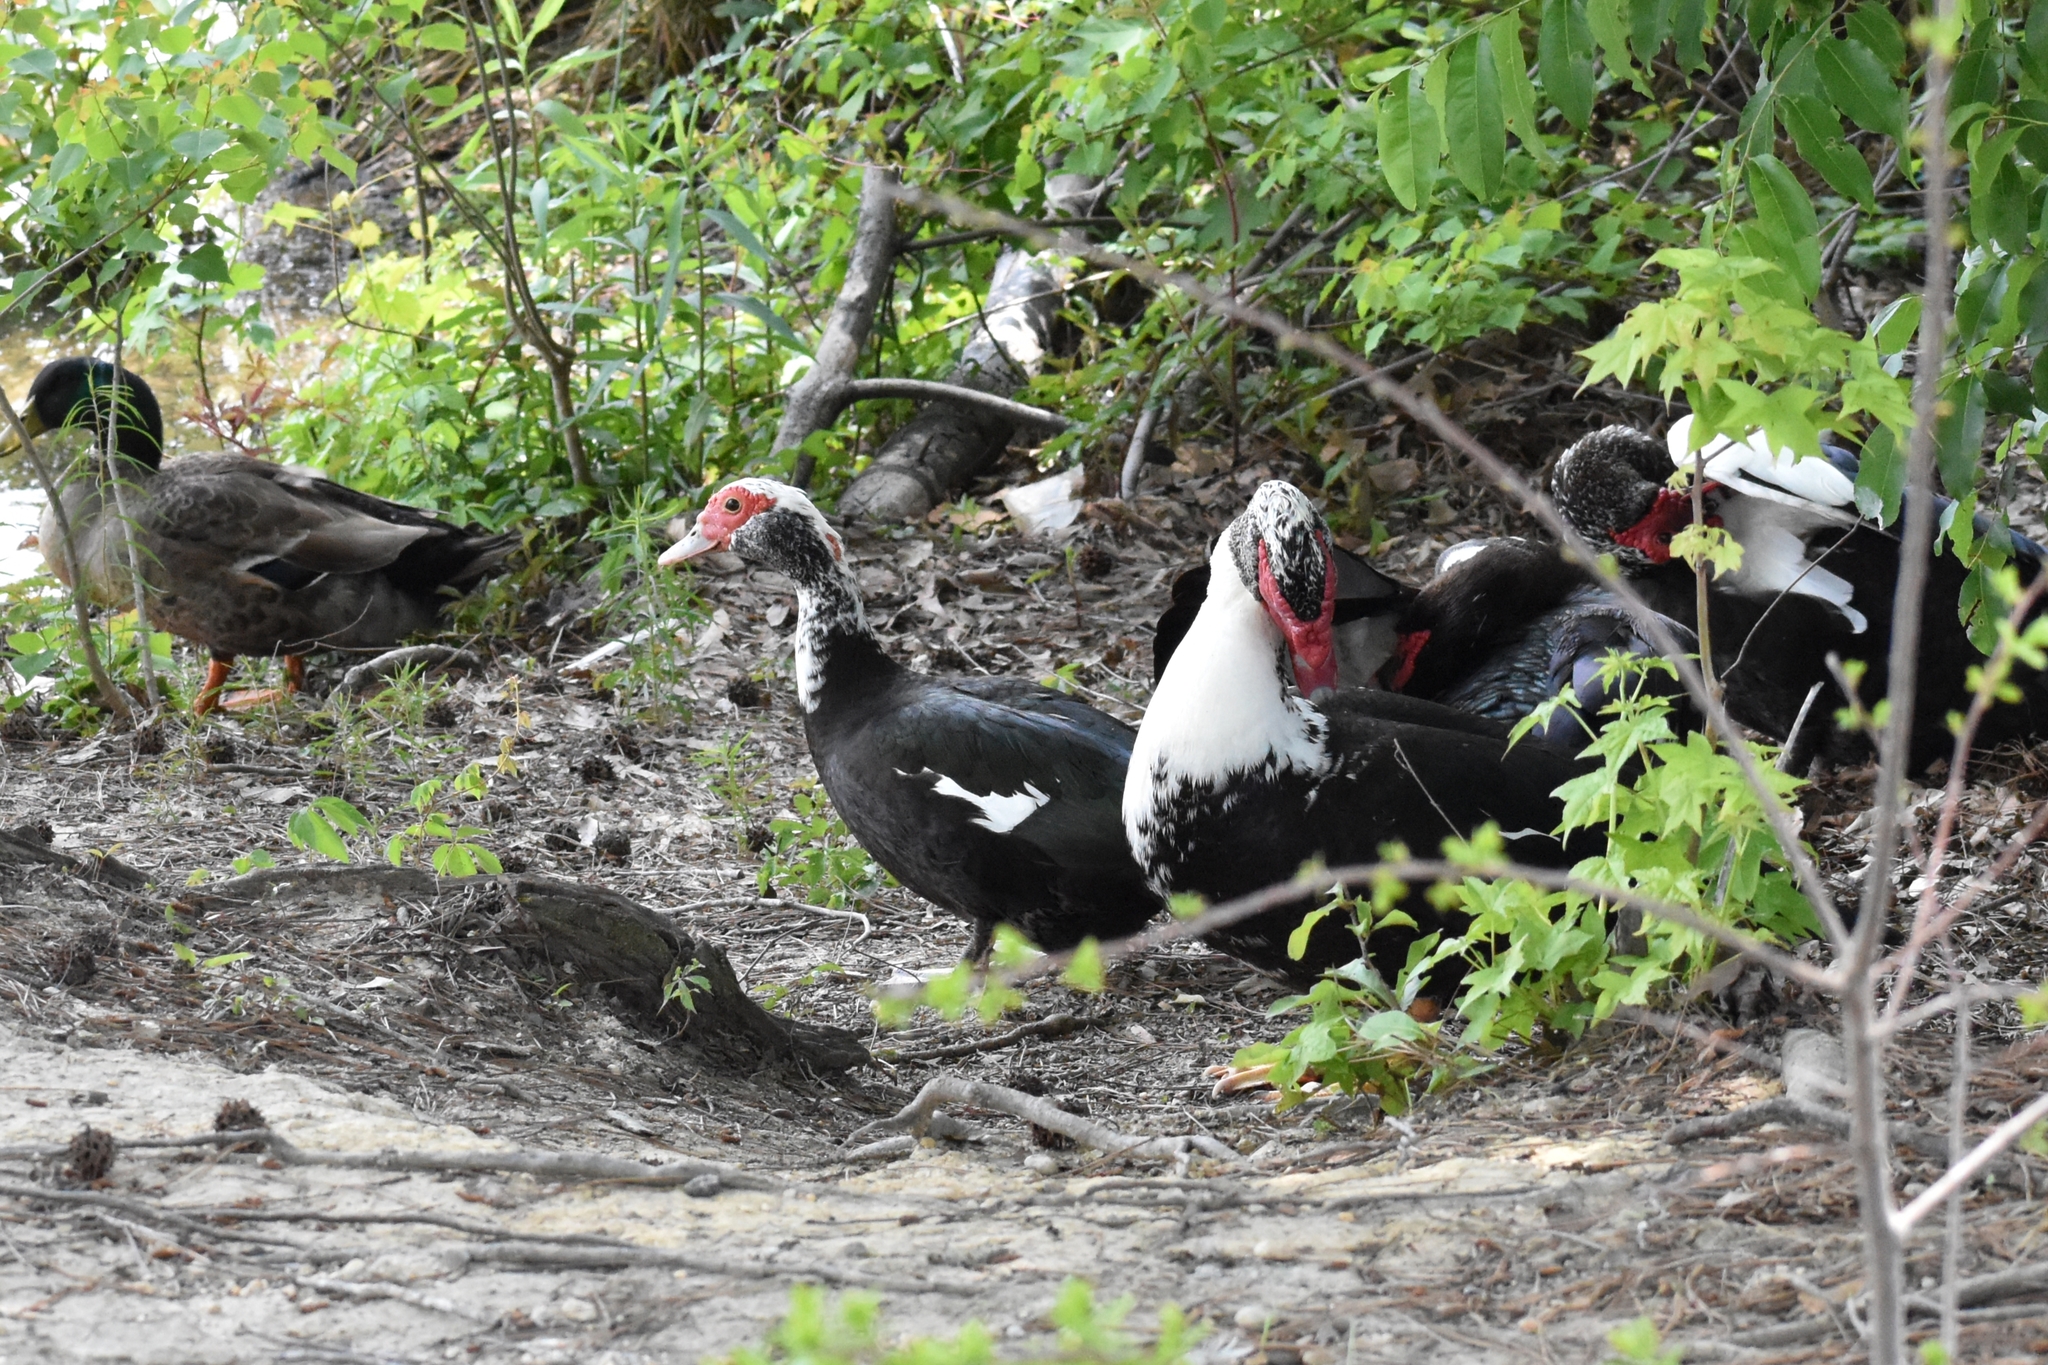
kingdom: Animalia
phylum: Chordata
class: Aves
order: Anseriformes
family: Anatidae
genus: Cairina
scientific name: Cairina moschata
